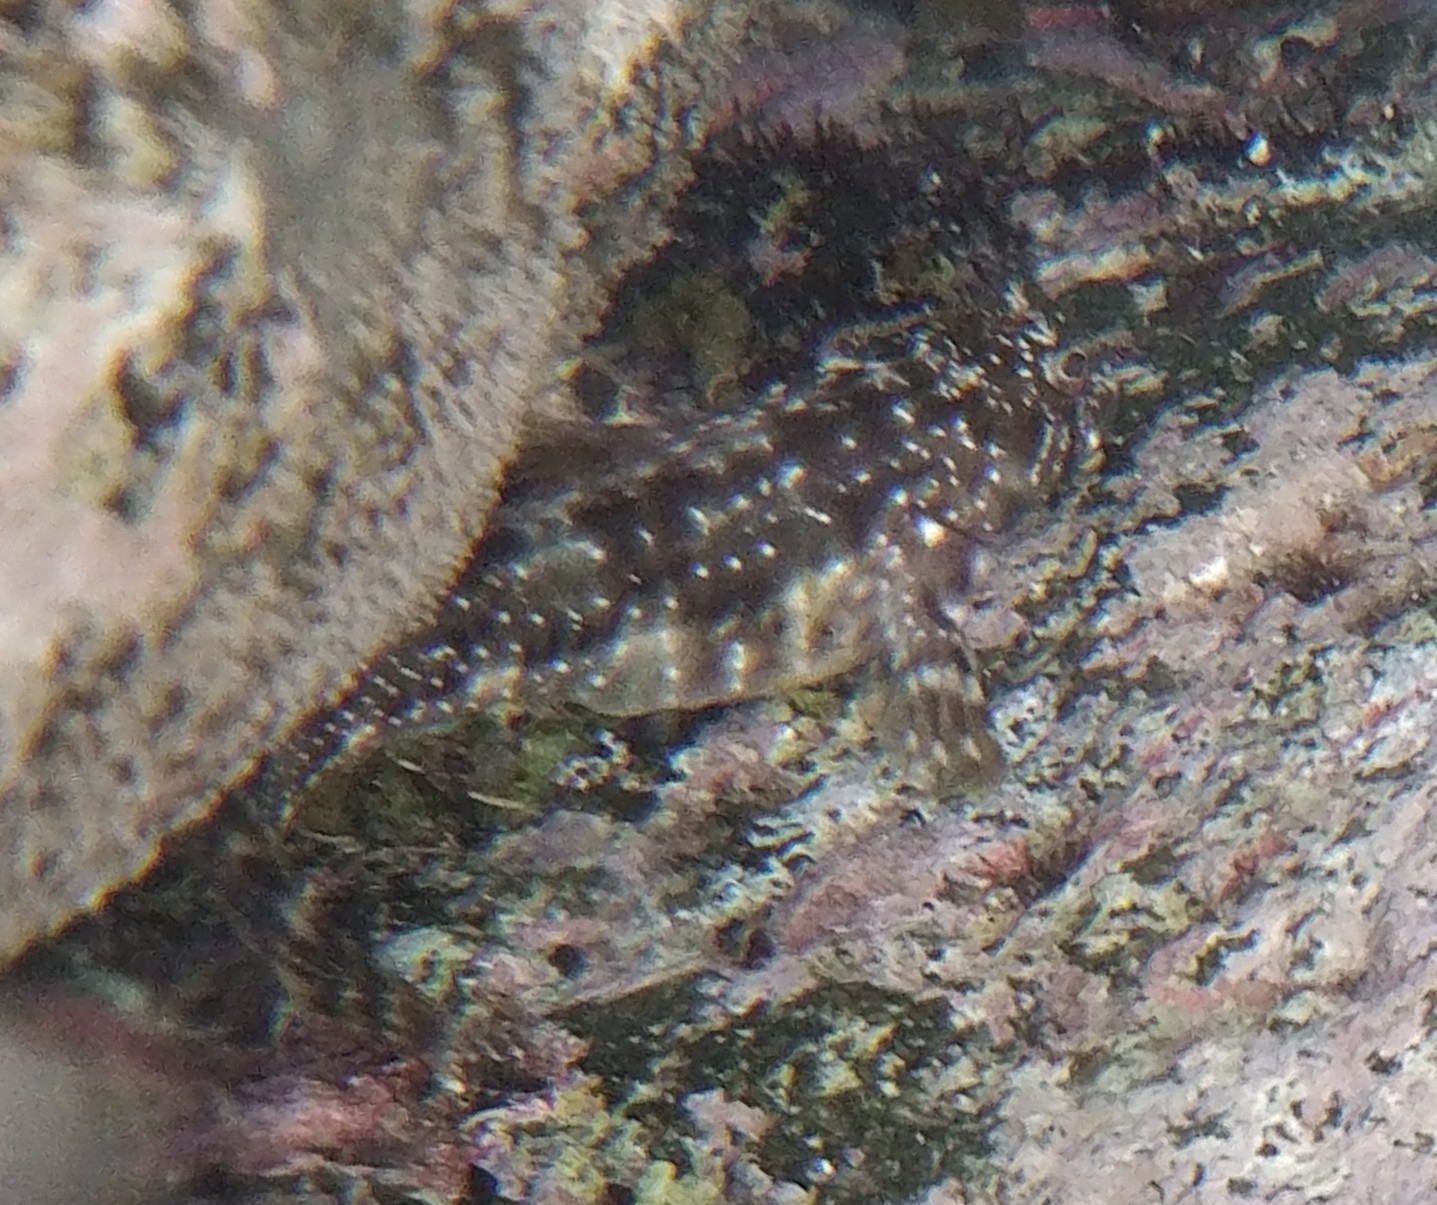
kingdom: Animalia
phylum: Chordata
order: Perciformes
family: Blenniidae
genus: Scartella
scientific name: Scartella cristata
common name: Molly miller
